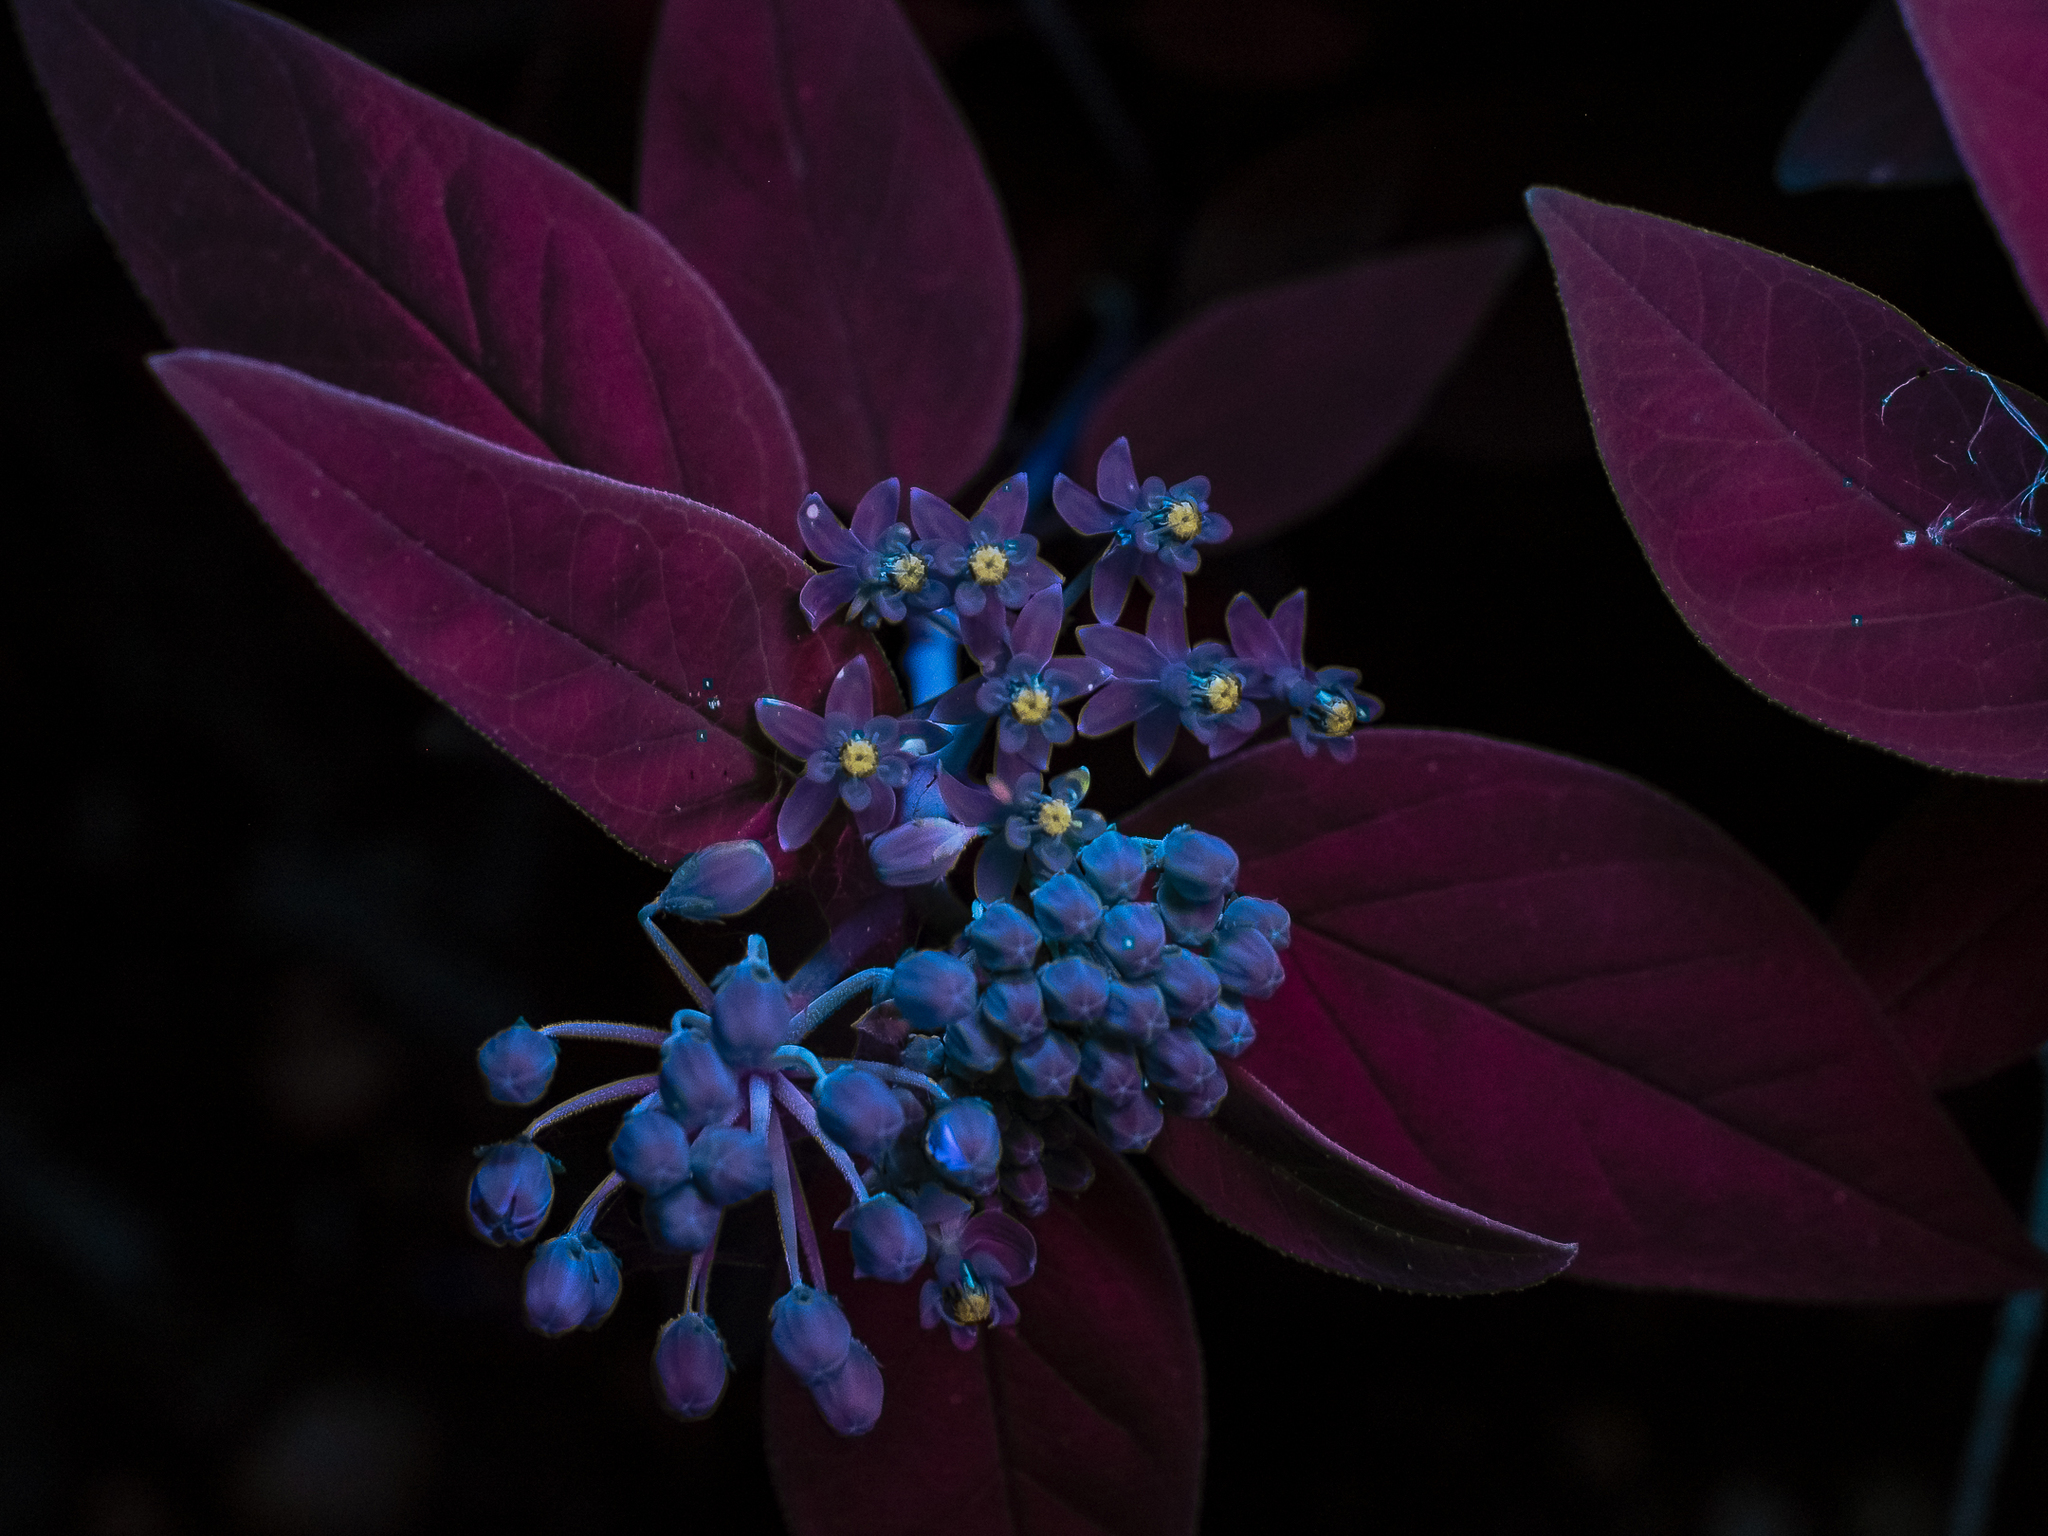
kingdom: Plantae
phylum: Tracheophyta
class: Magnoliopsida
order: Gentianales
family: Apocynaceae
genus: Asclepias
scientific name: Asclepias texana
